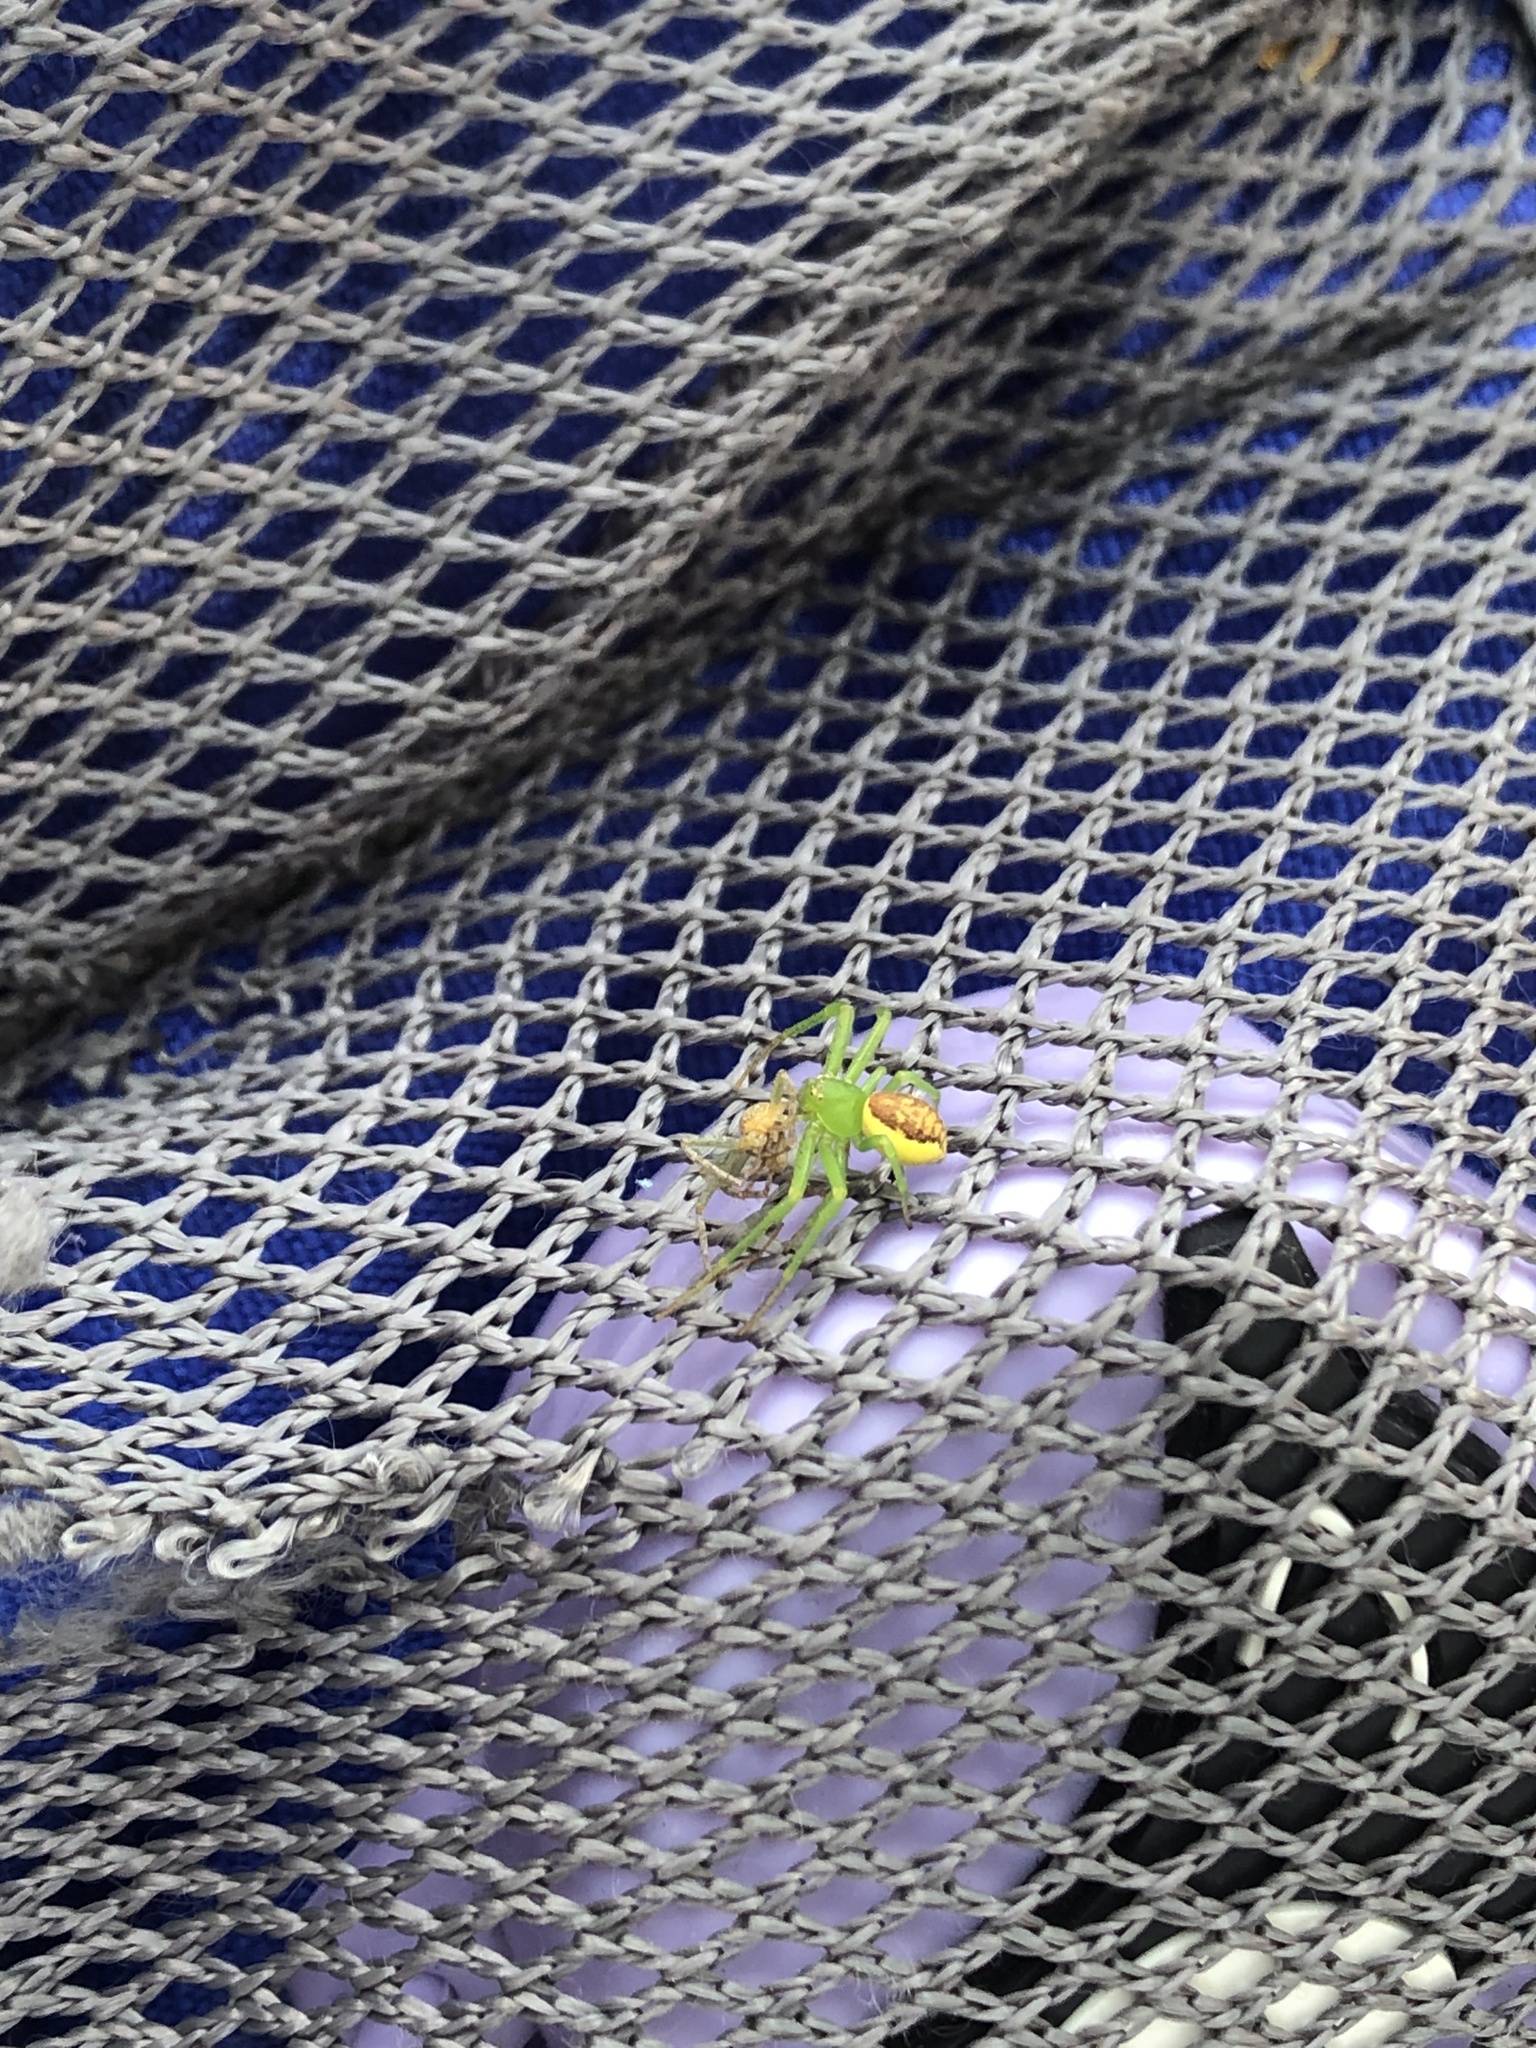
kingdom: Animalia
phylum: Arthropoda
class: Arachnida
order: Araneae
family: Thomisidae
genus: Diaea
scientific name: Diaea dorsata
